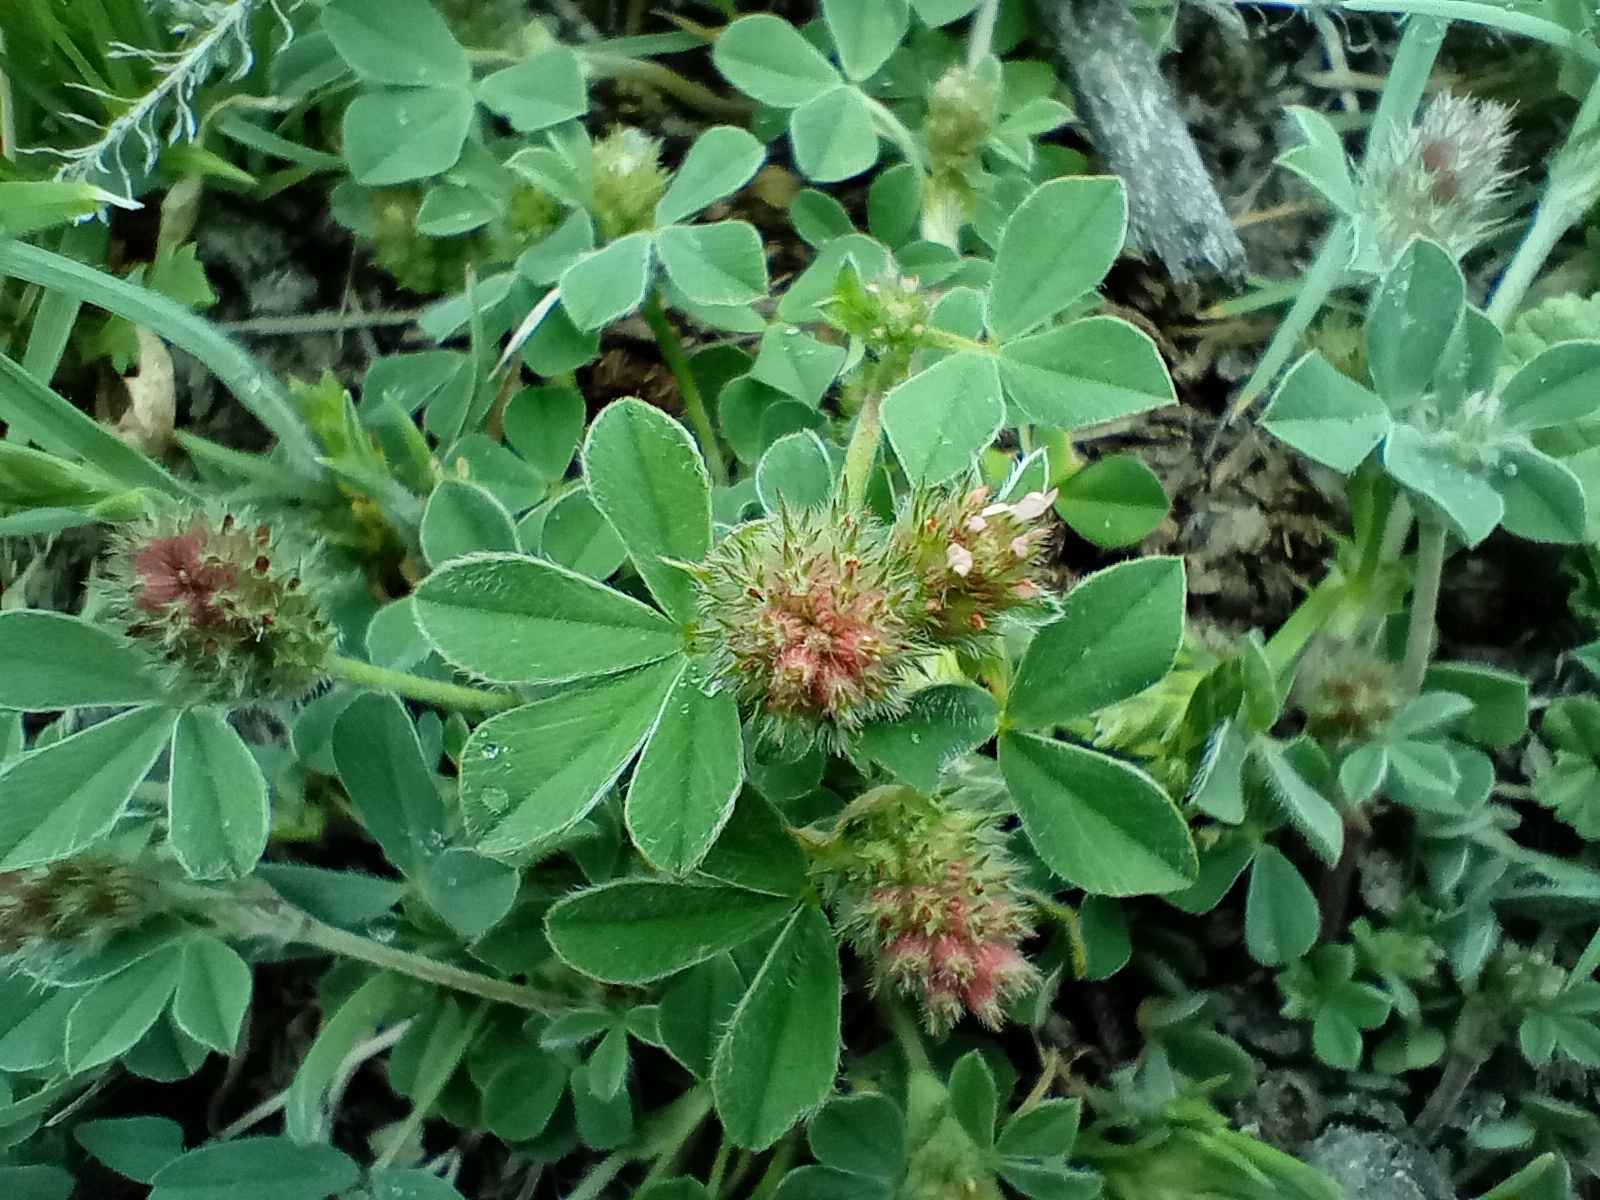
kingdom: Plantae
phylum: Tracheophyta
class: Magnoliopsida
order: Fabales
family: Fabaceae
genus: Trifolium
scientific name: Trifolium striatum
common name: Knotted clover
